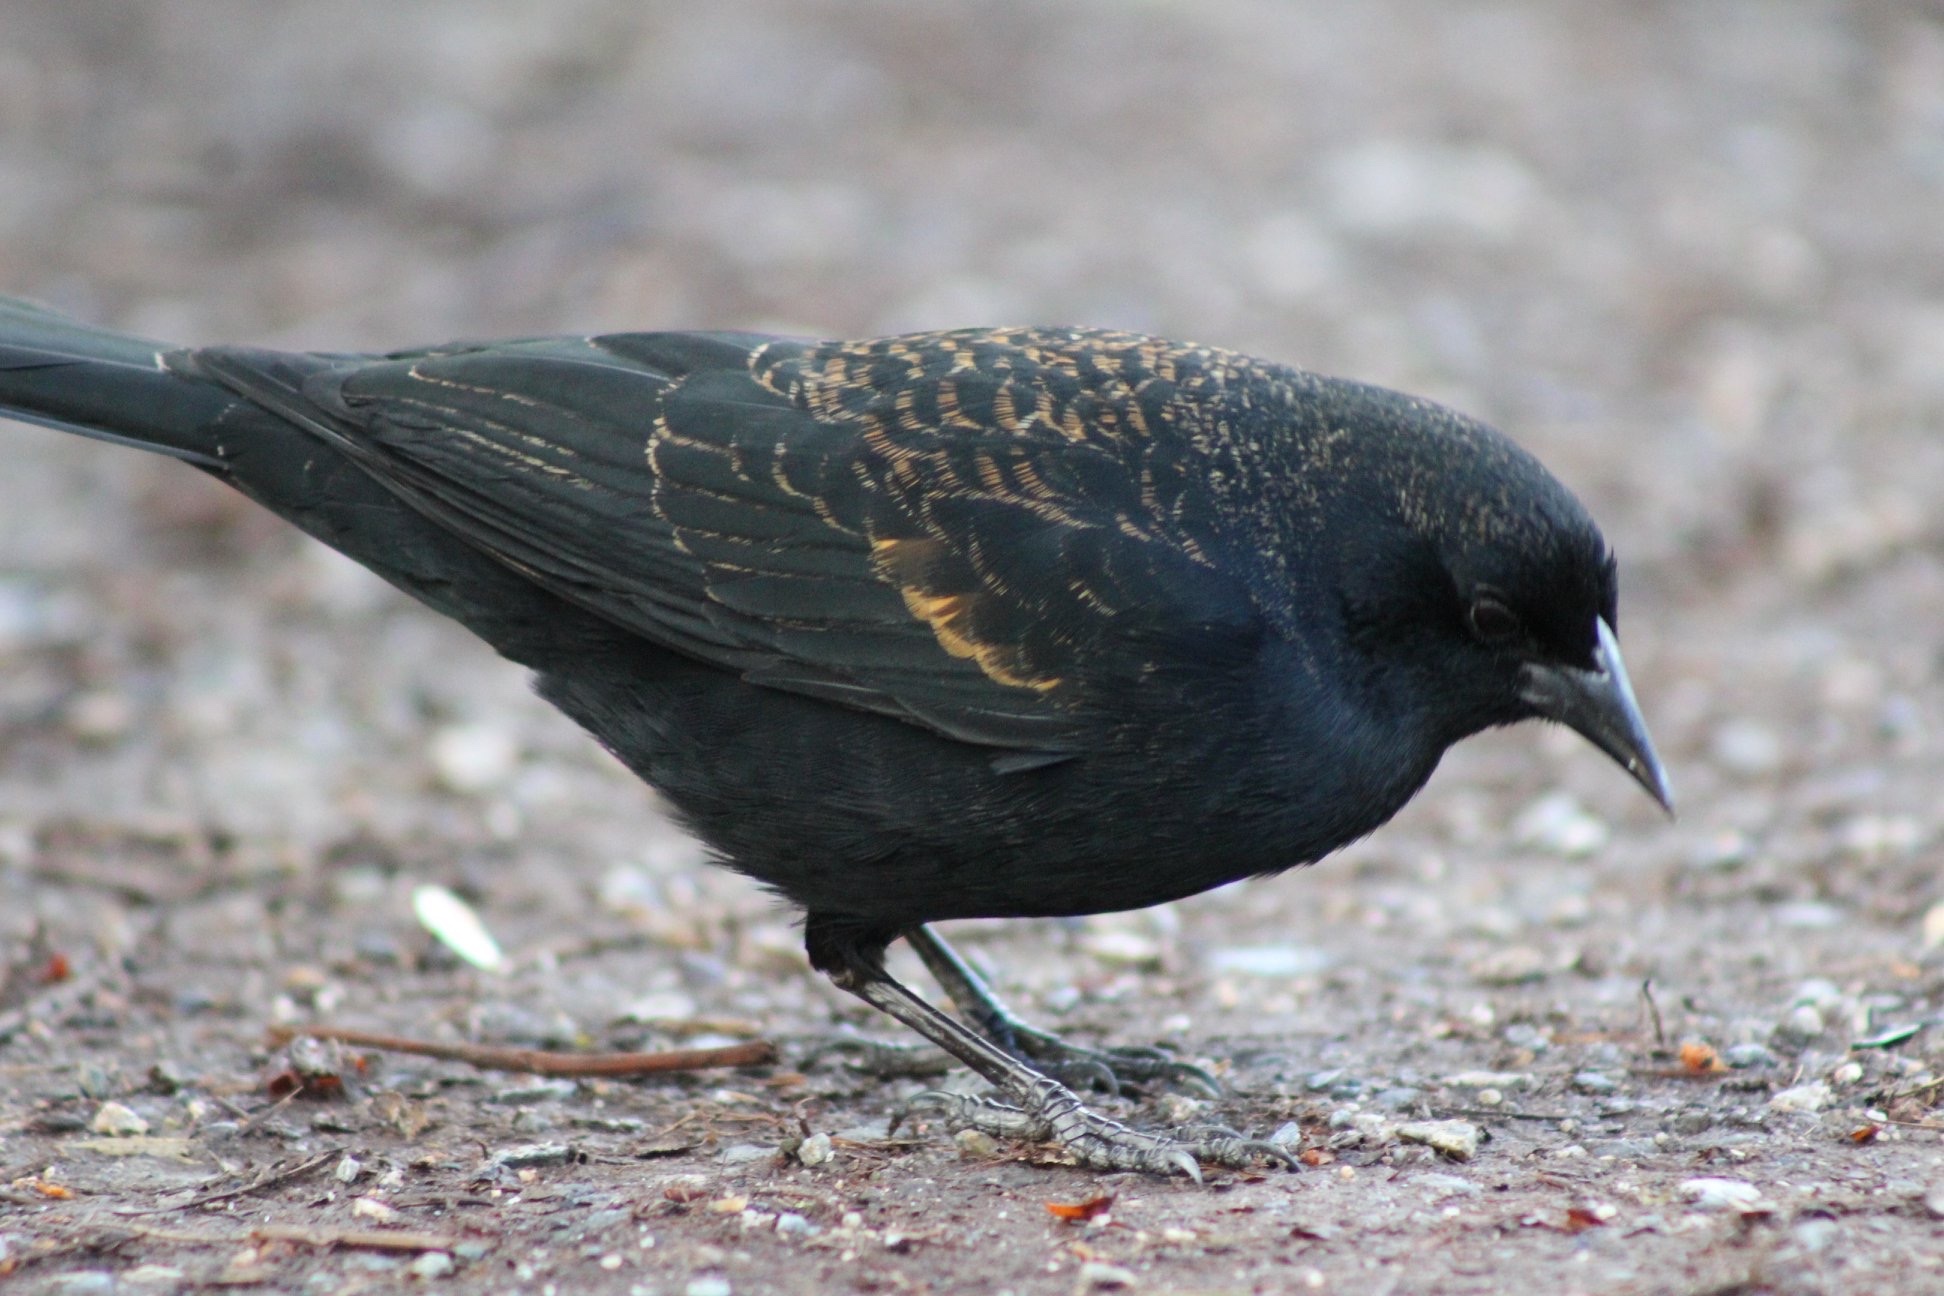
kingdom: Animalia
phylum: Chordata
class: Aves
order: Passeriformes
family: Icteridae
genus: Agelaius
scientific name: Agelaius phoeniceus
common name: Red-winged blackbird
